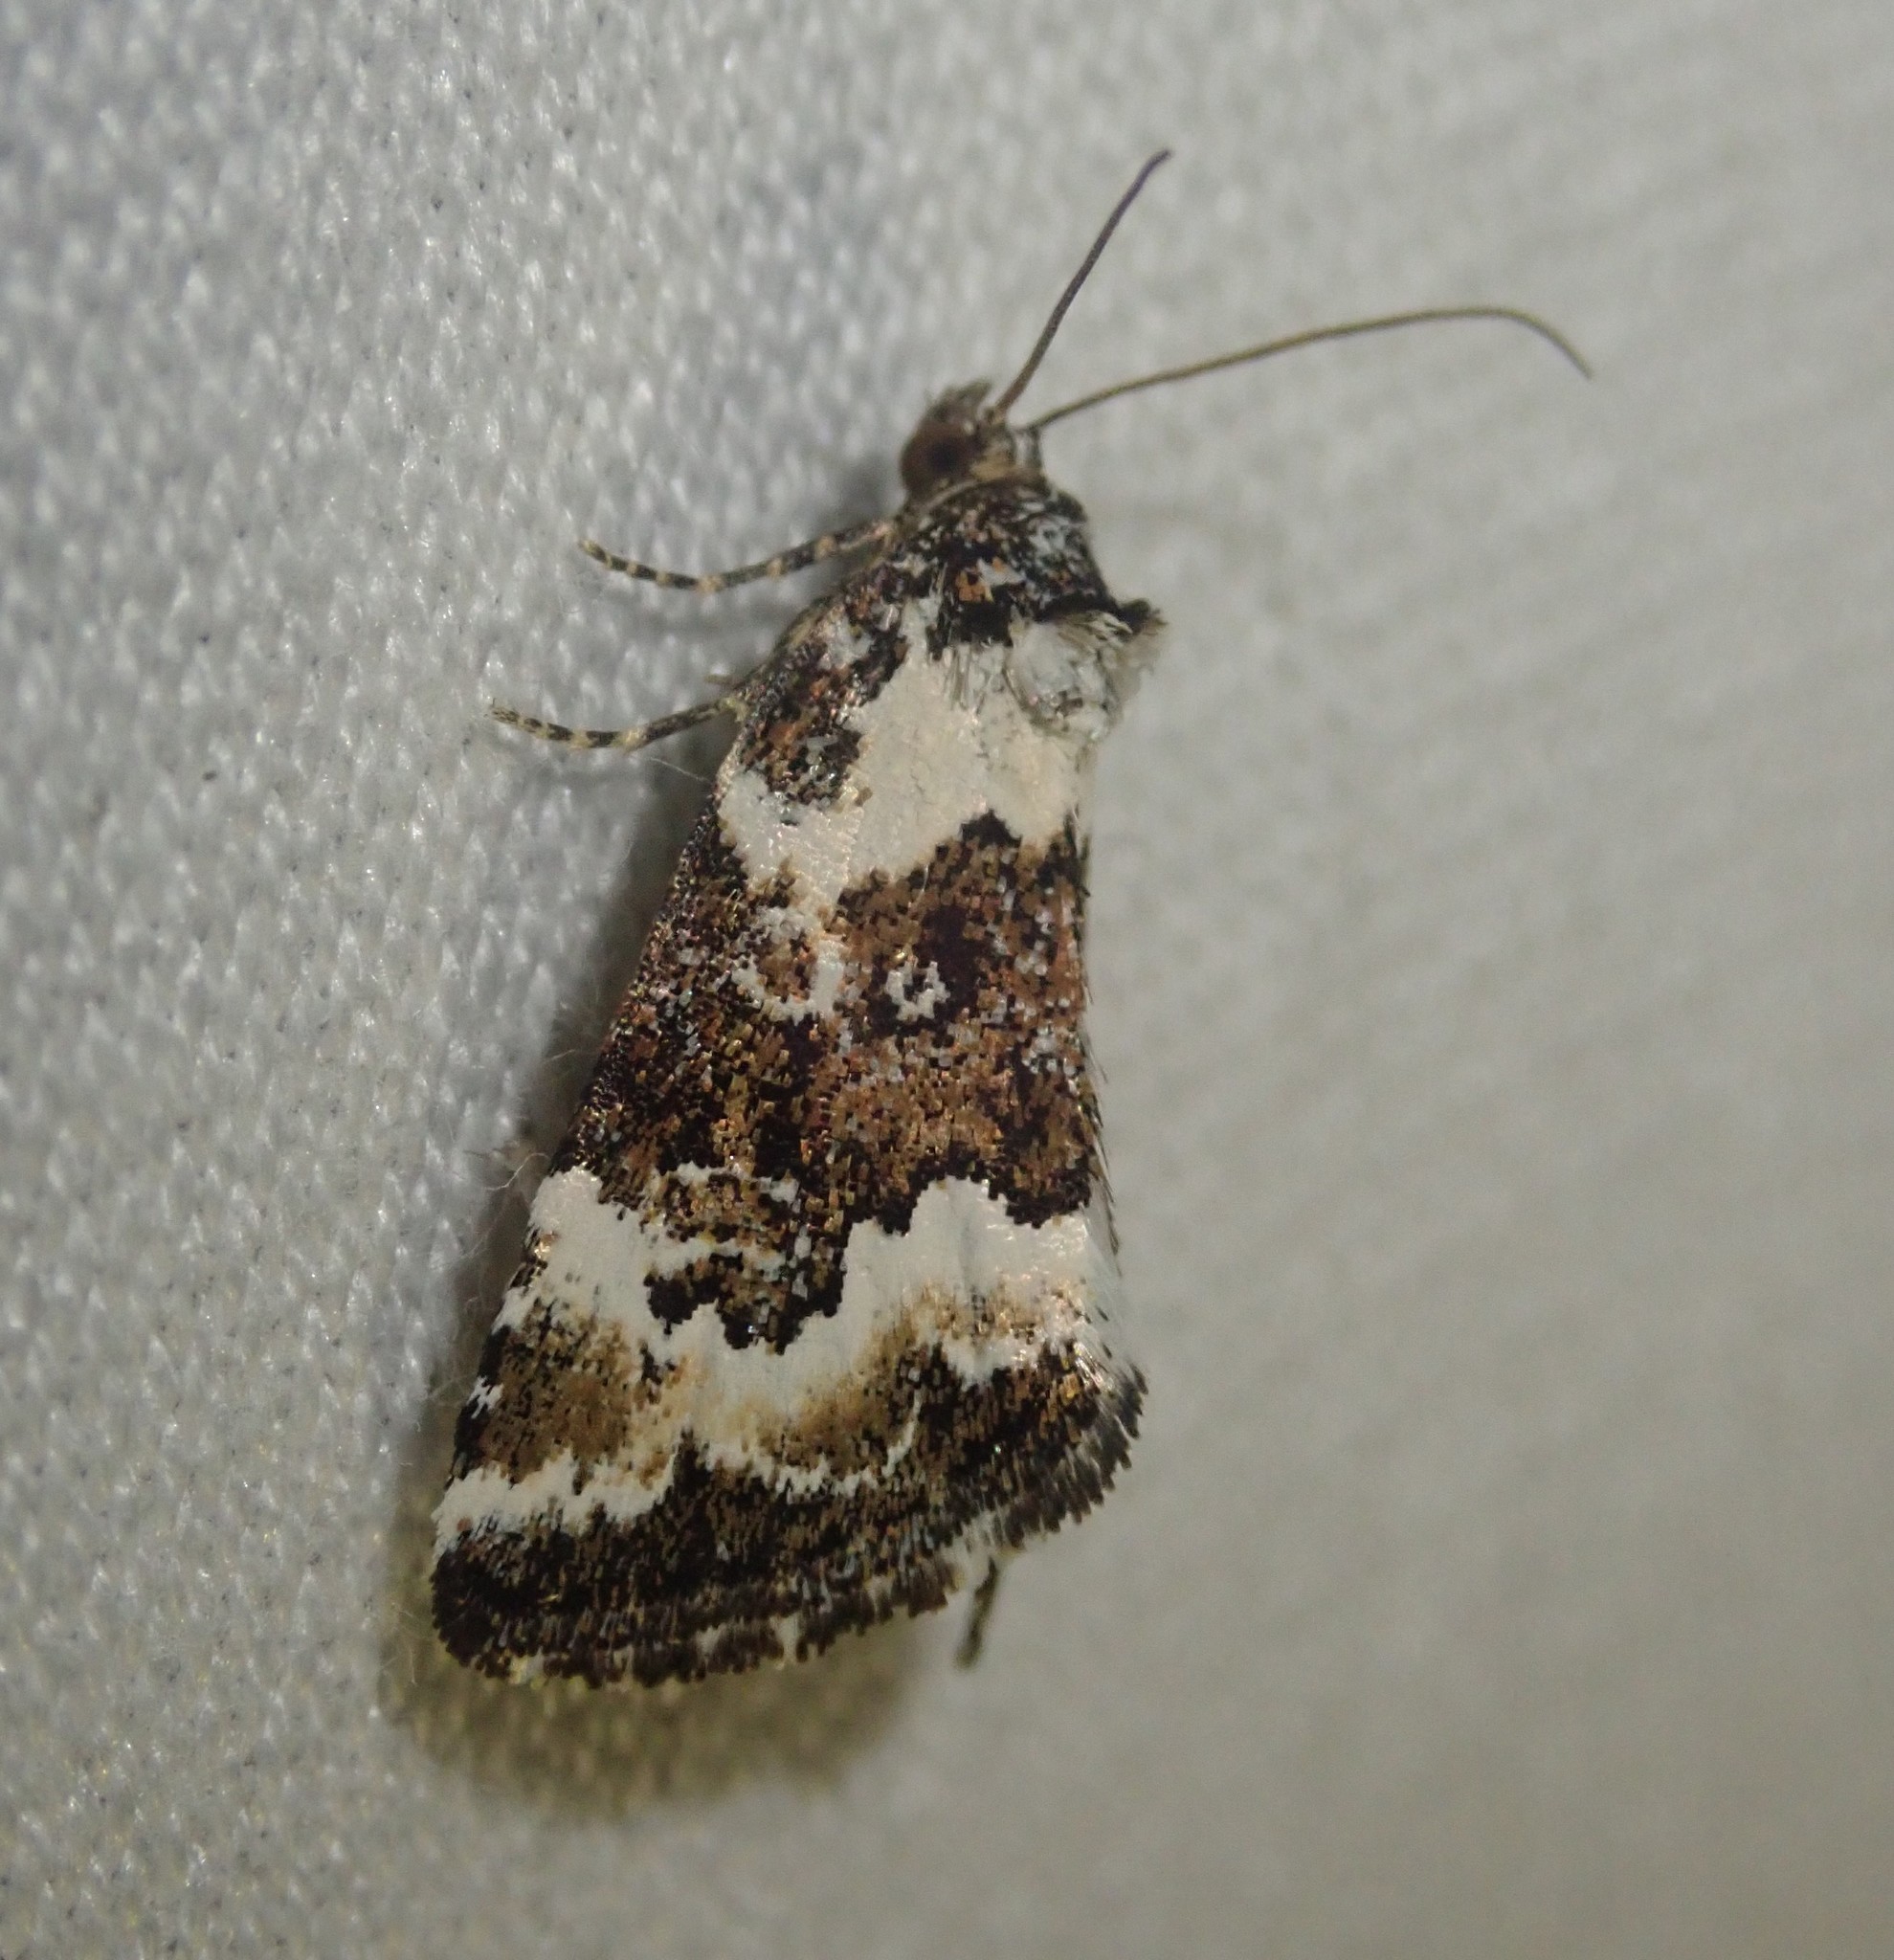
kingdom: Animalia
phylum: Arthropoda
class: Insecta
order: Lepidoptera
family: Noctuidae
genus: Deltote
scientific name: Deltote deceptoria
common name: Pretty marbled
